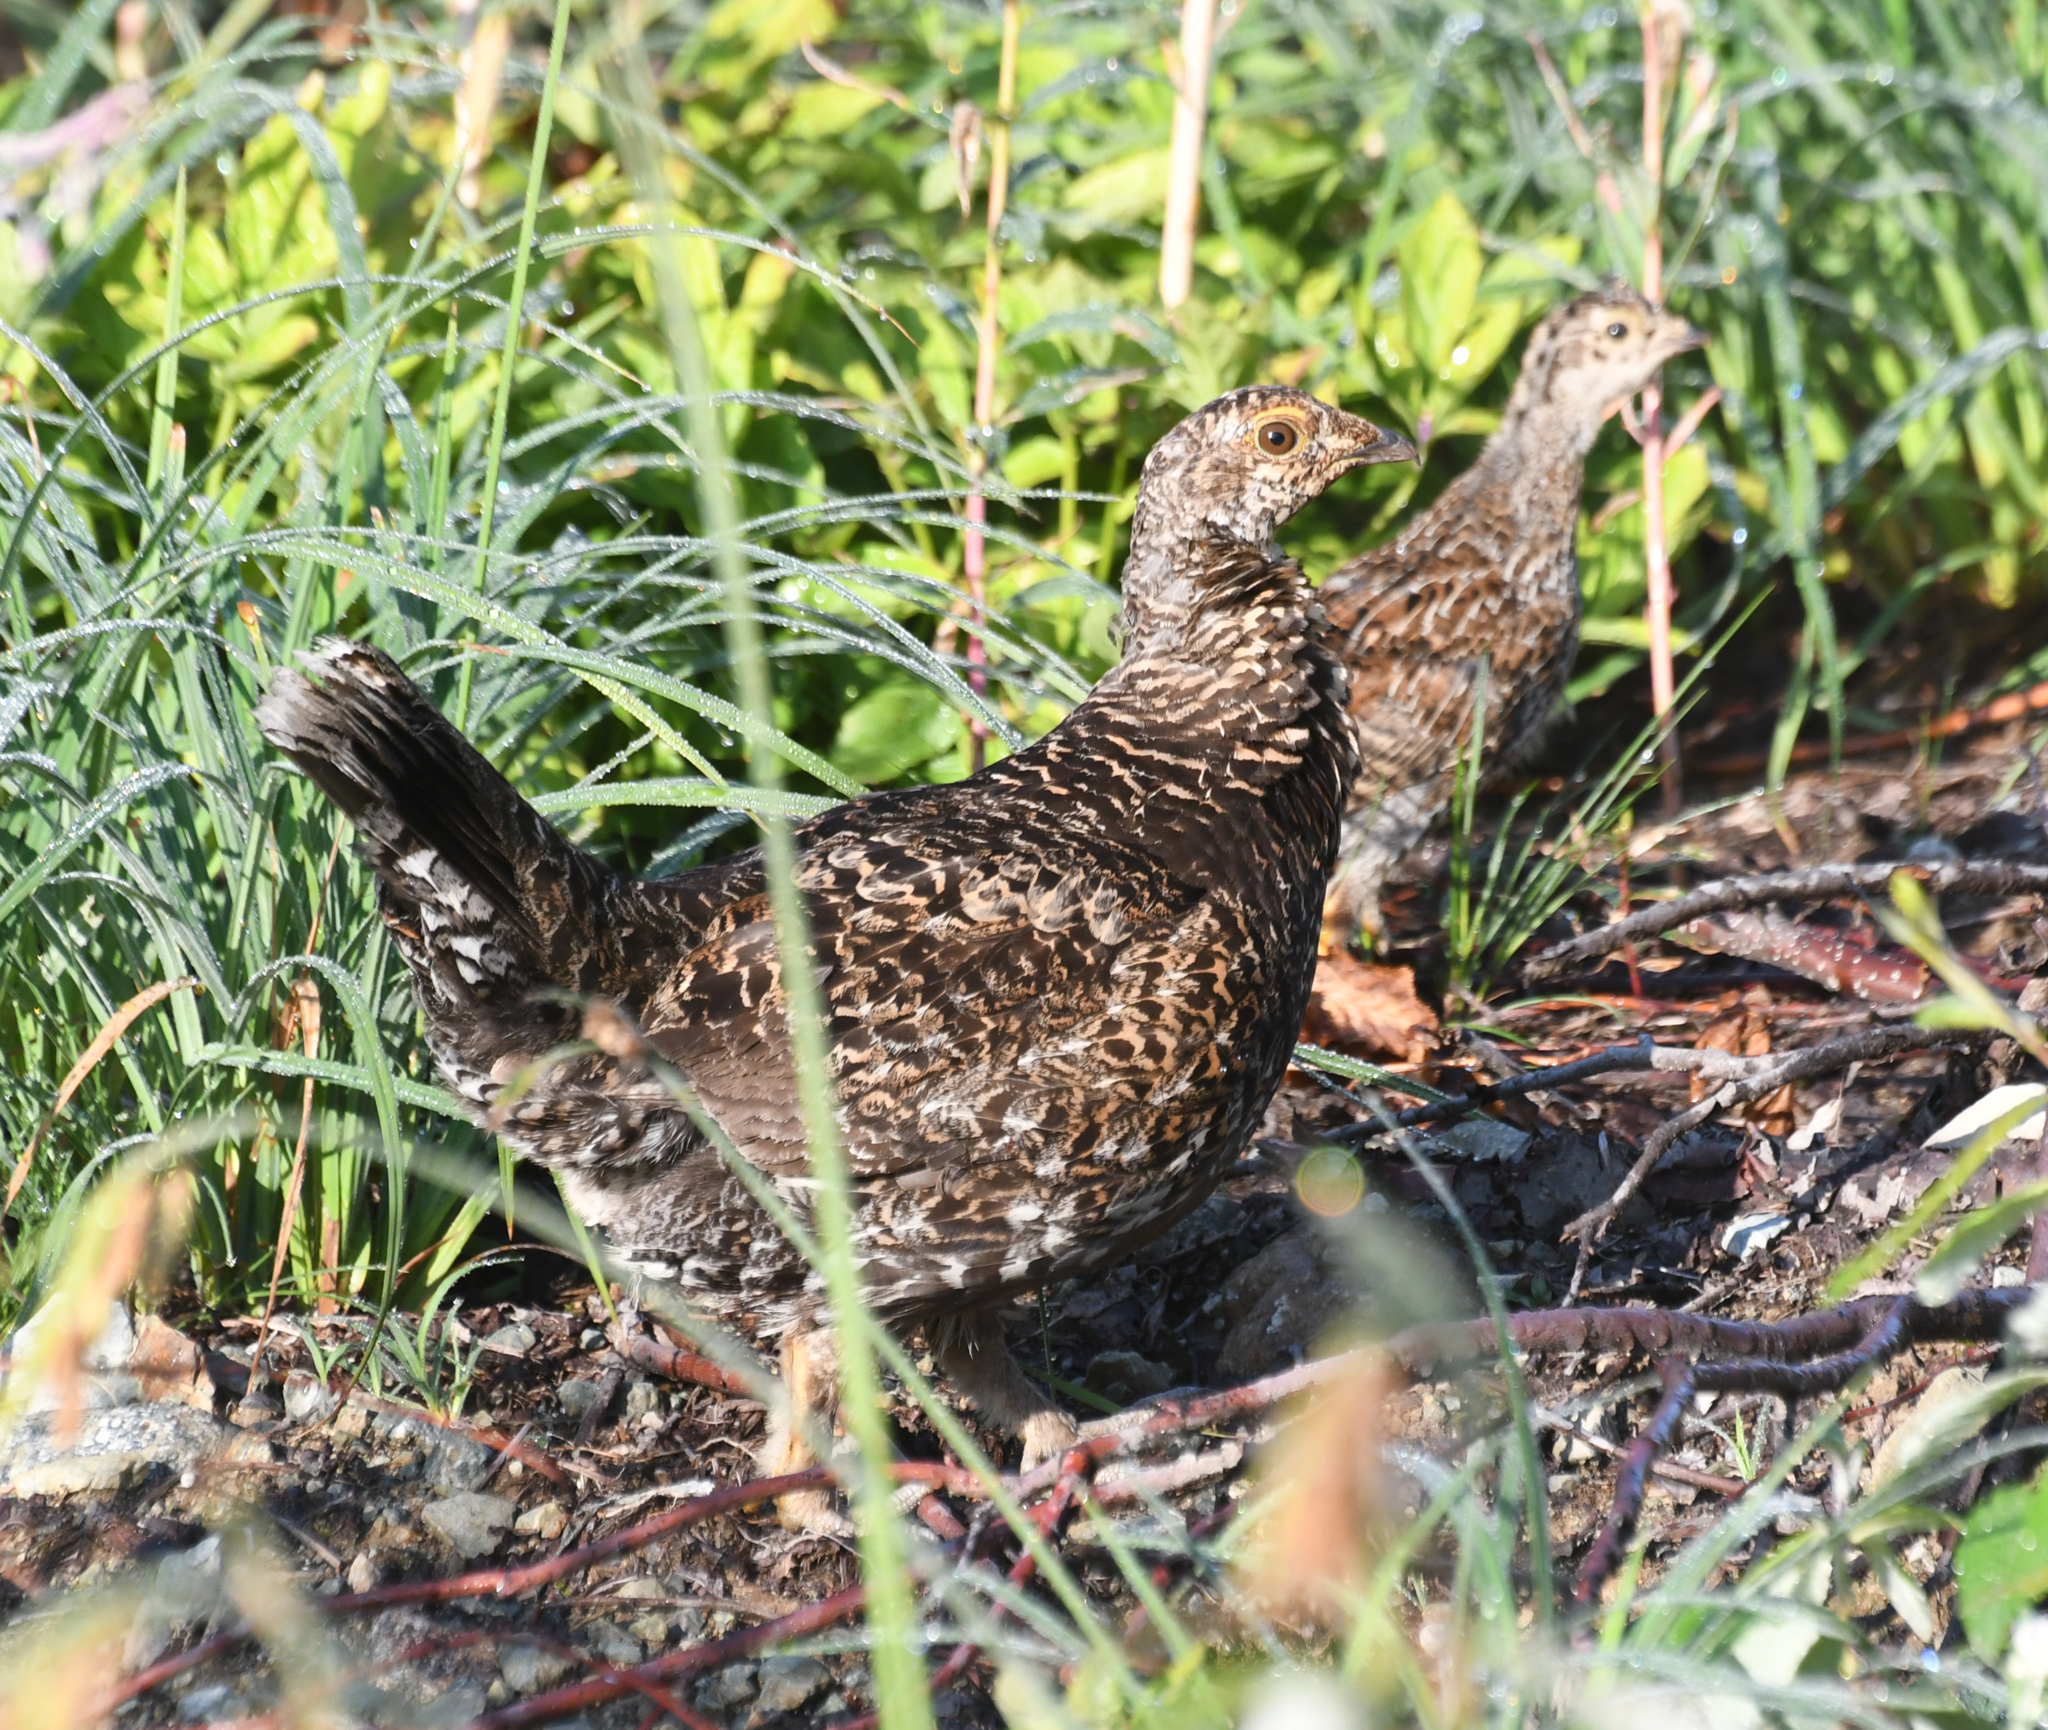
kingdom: Animalia
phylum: Chordata
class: Aves
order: Galliformes
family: Phasianidae
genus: Dendragapus
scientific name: Dendragapus fuliginosus
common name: Sooty grouse
